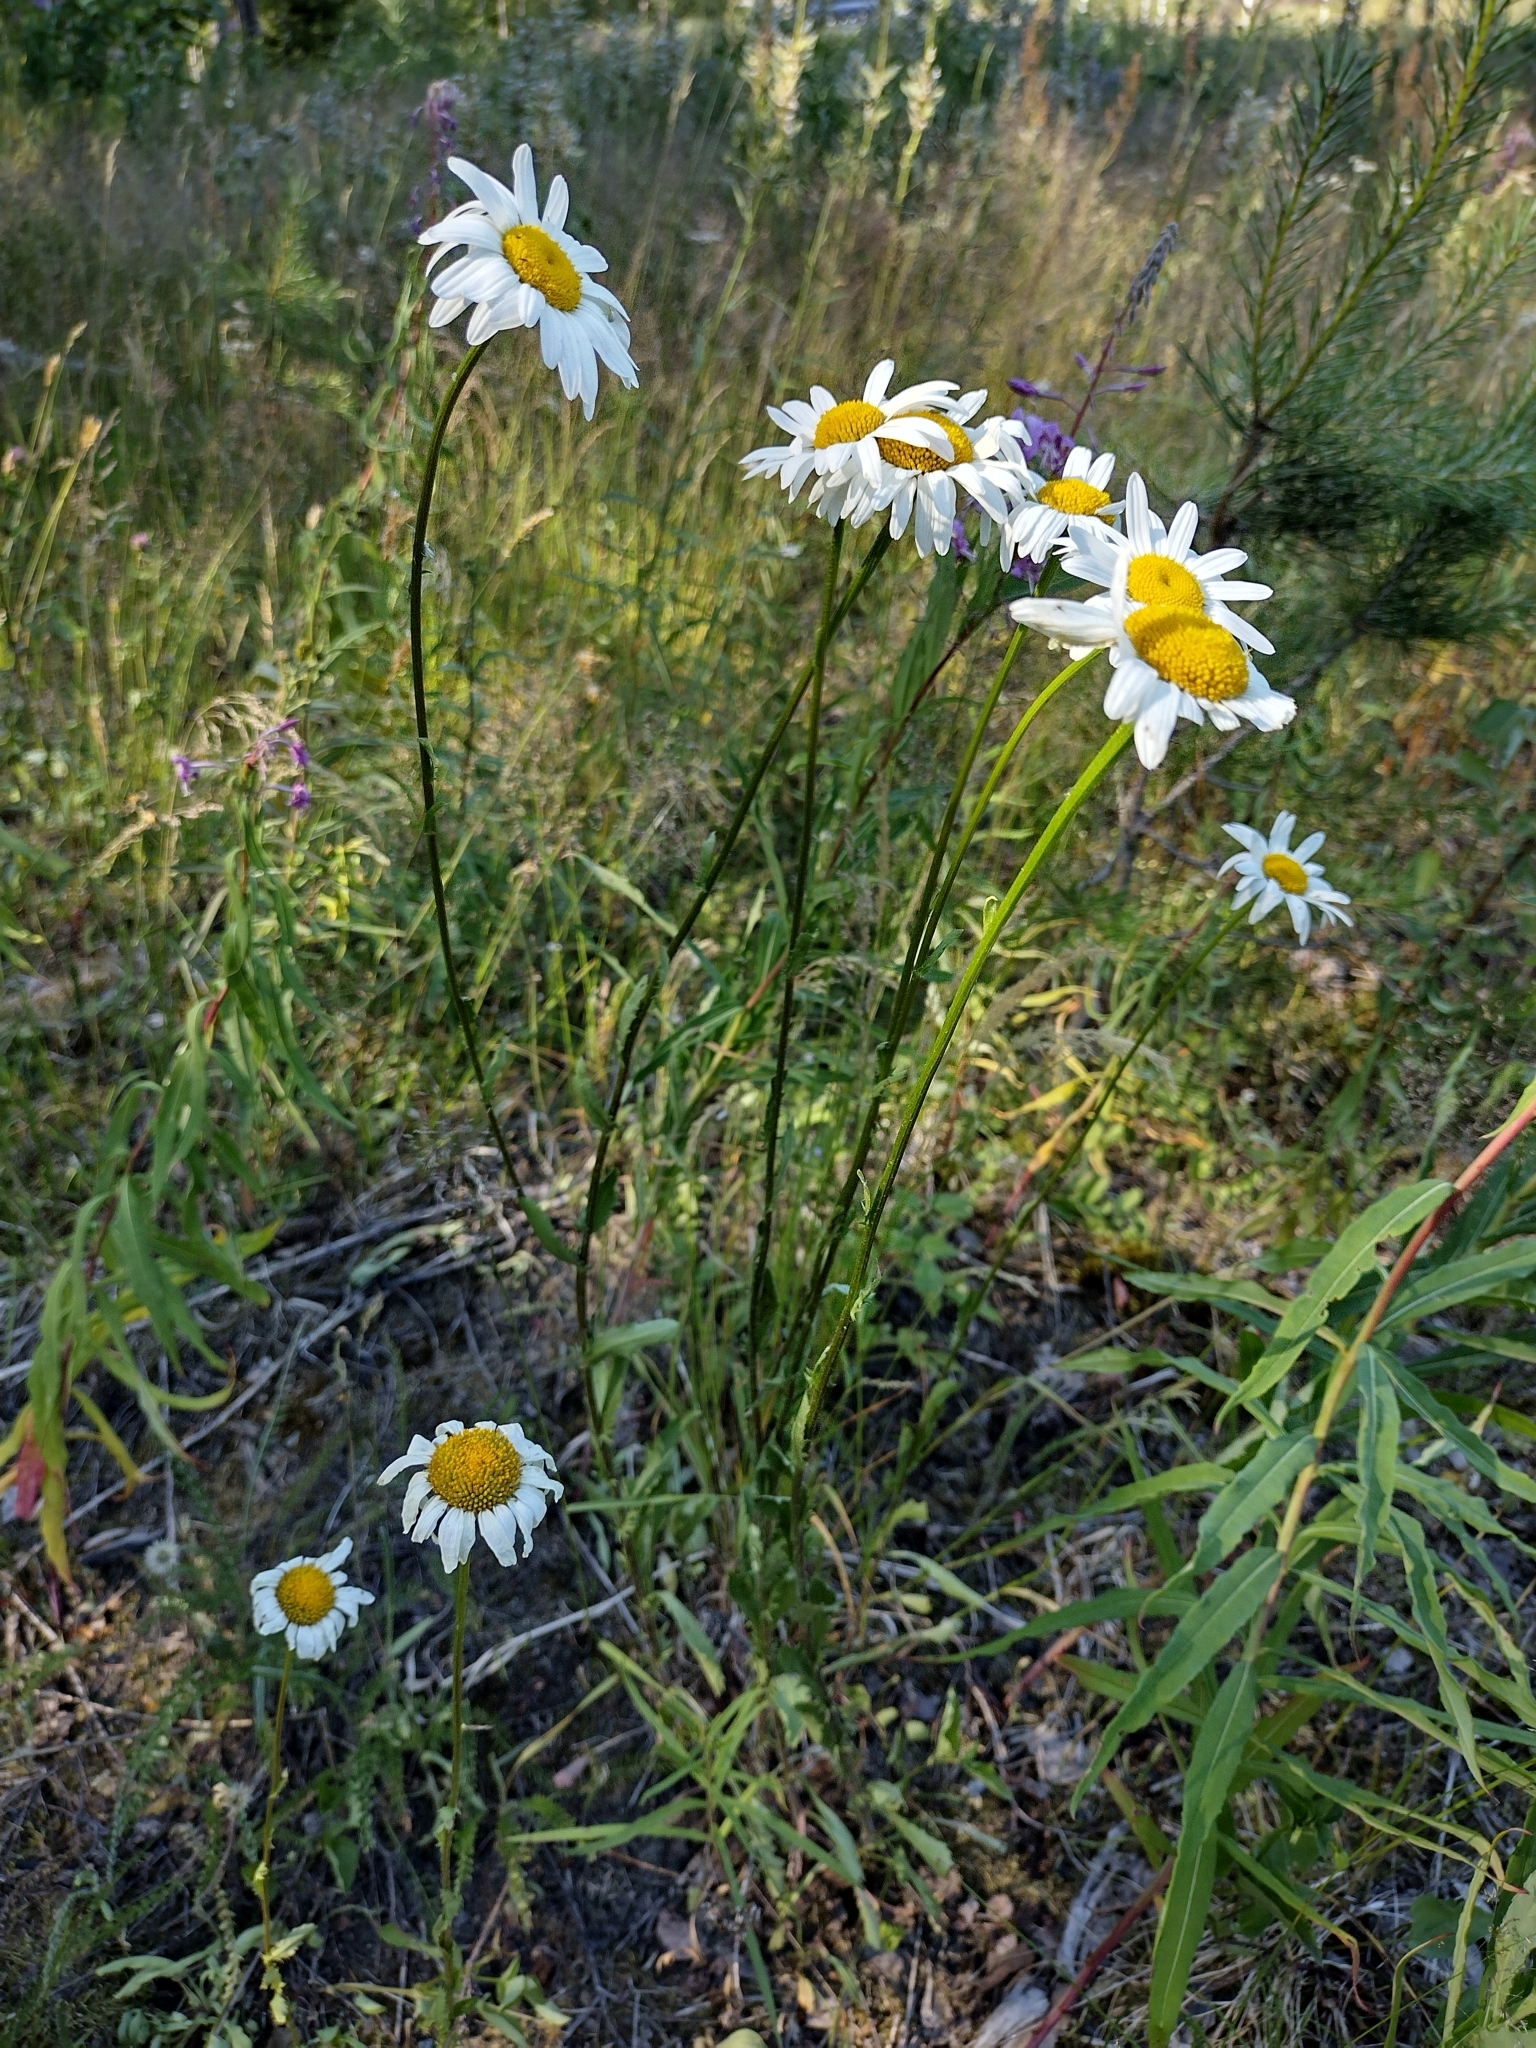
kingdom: Plantae
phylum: Tracheophyta
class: Magnoliopsida
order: Asterales
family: Asteraceae
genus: Leucanthemum
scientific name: Leucanthemum vulgare
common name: Oxeye daisy
